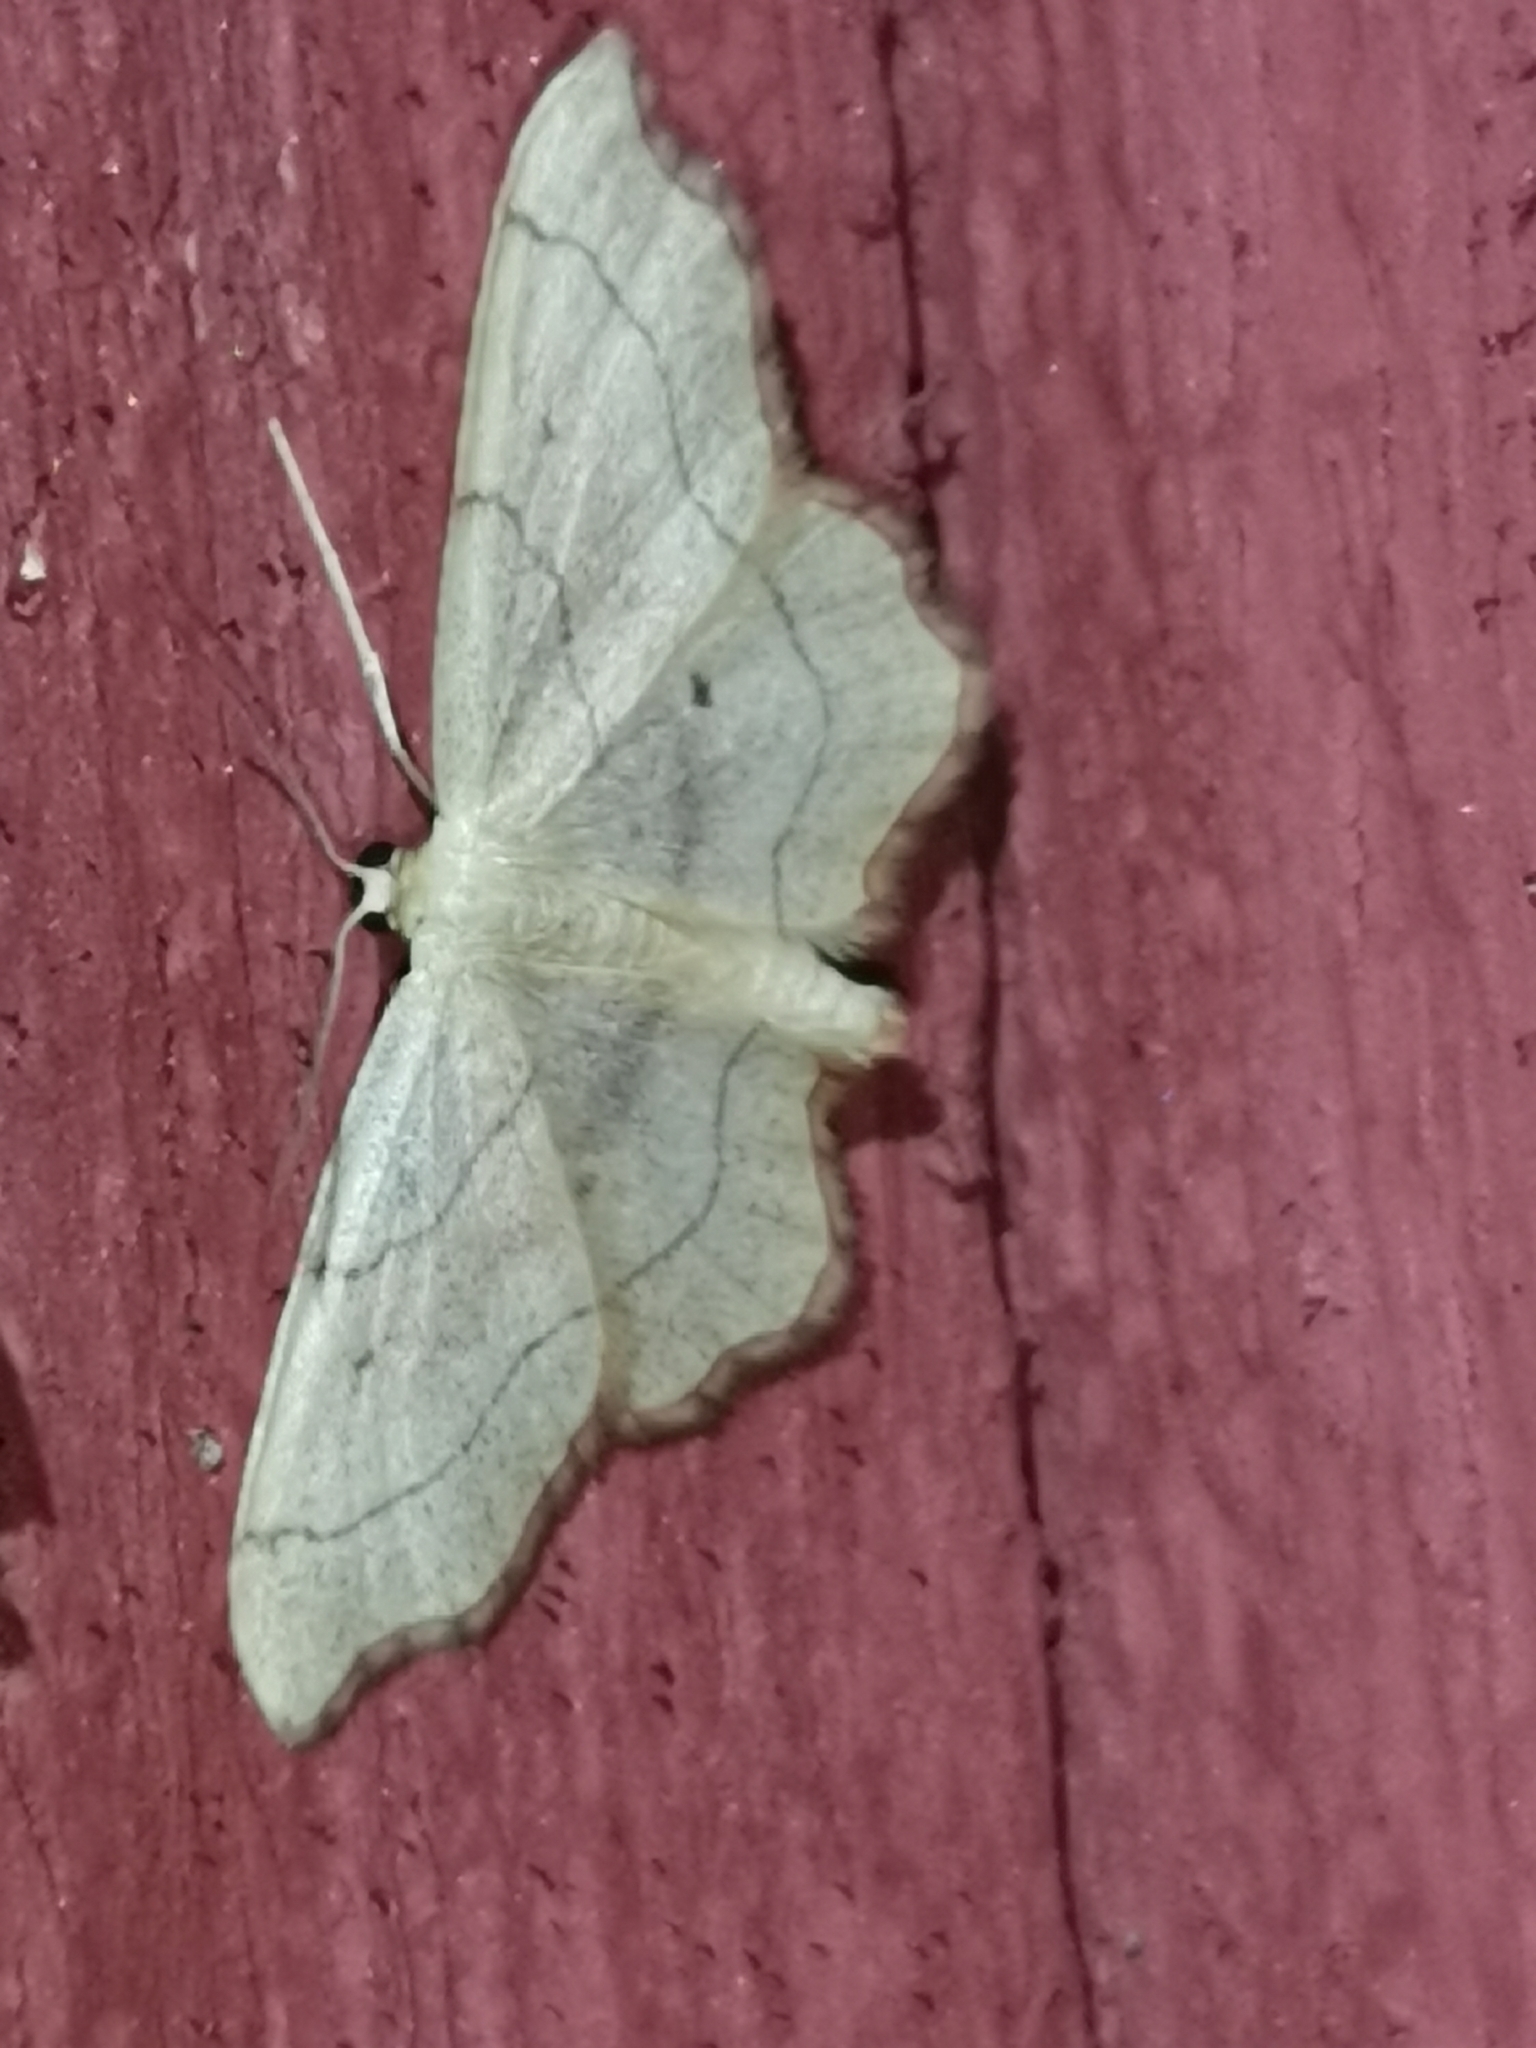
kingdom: Animalia
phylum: Arthropoda
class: Insecta
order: Lepidoptera
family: Geometridae
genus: Idaea
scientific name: Idaea emarginata
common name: Small scallop
